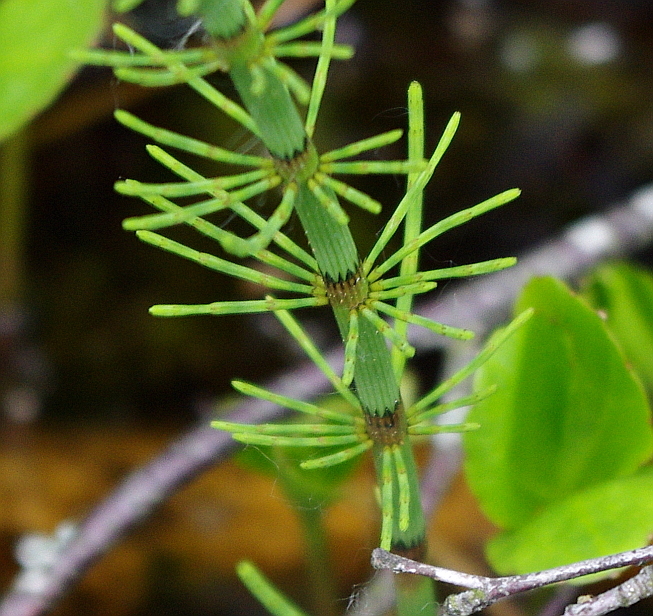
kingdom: Plantae
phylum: Tracheophyta
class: Polypodiopsida
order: Equisetales
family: Equisetaceae
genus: Equisetum
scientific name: Equisetum fluviatile
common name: Water horsetail
